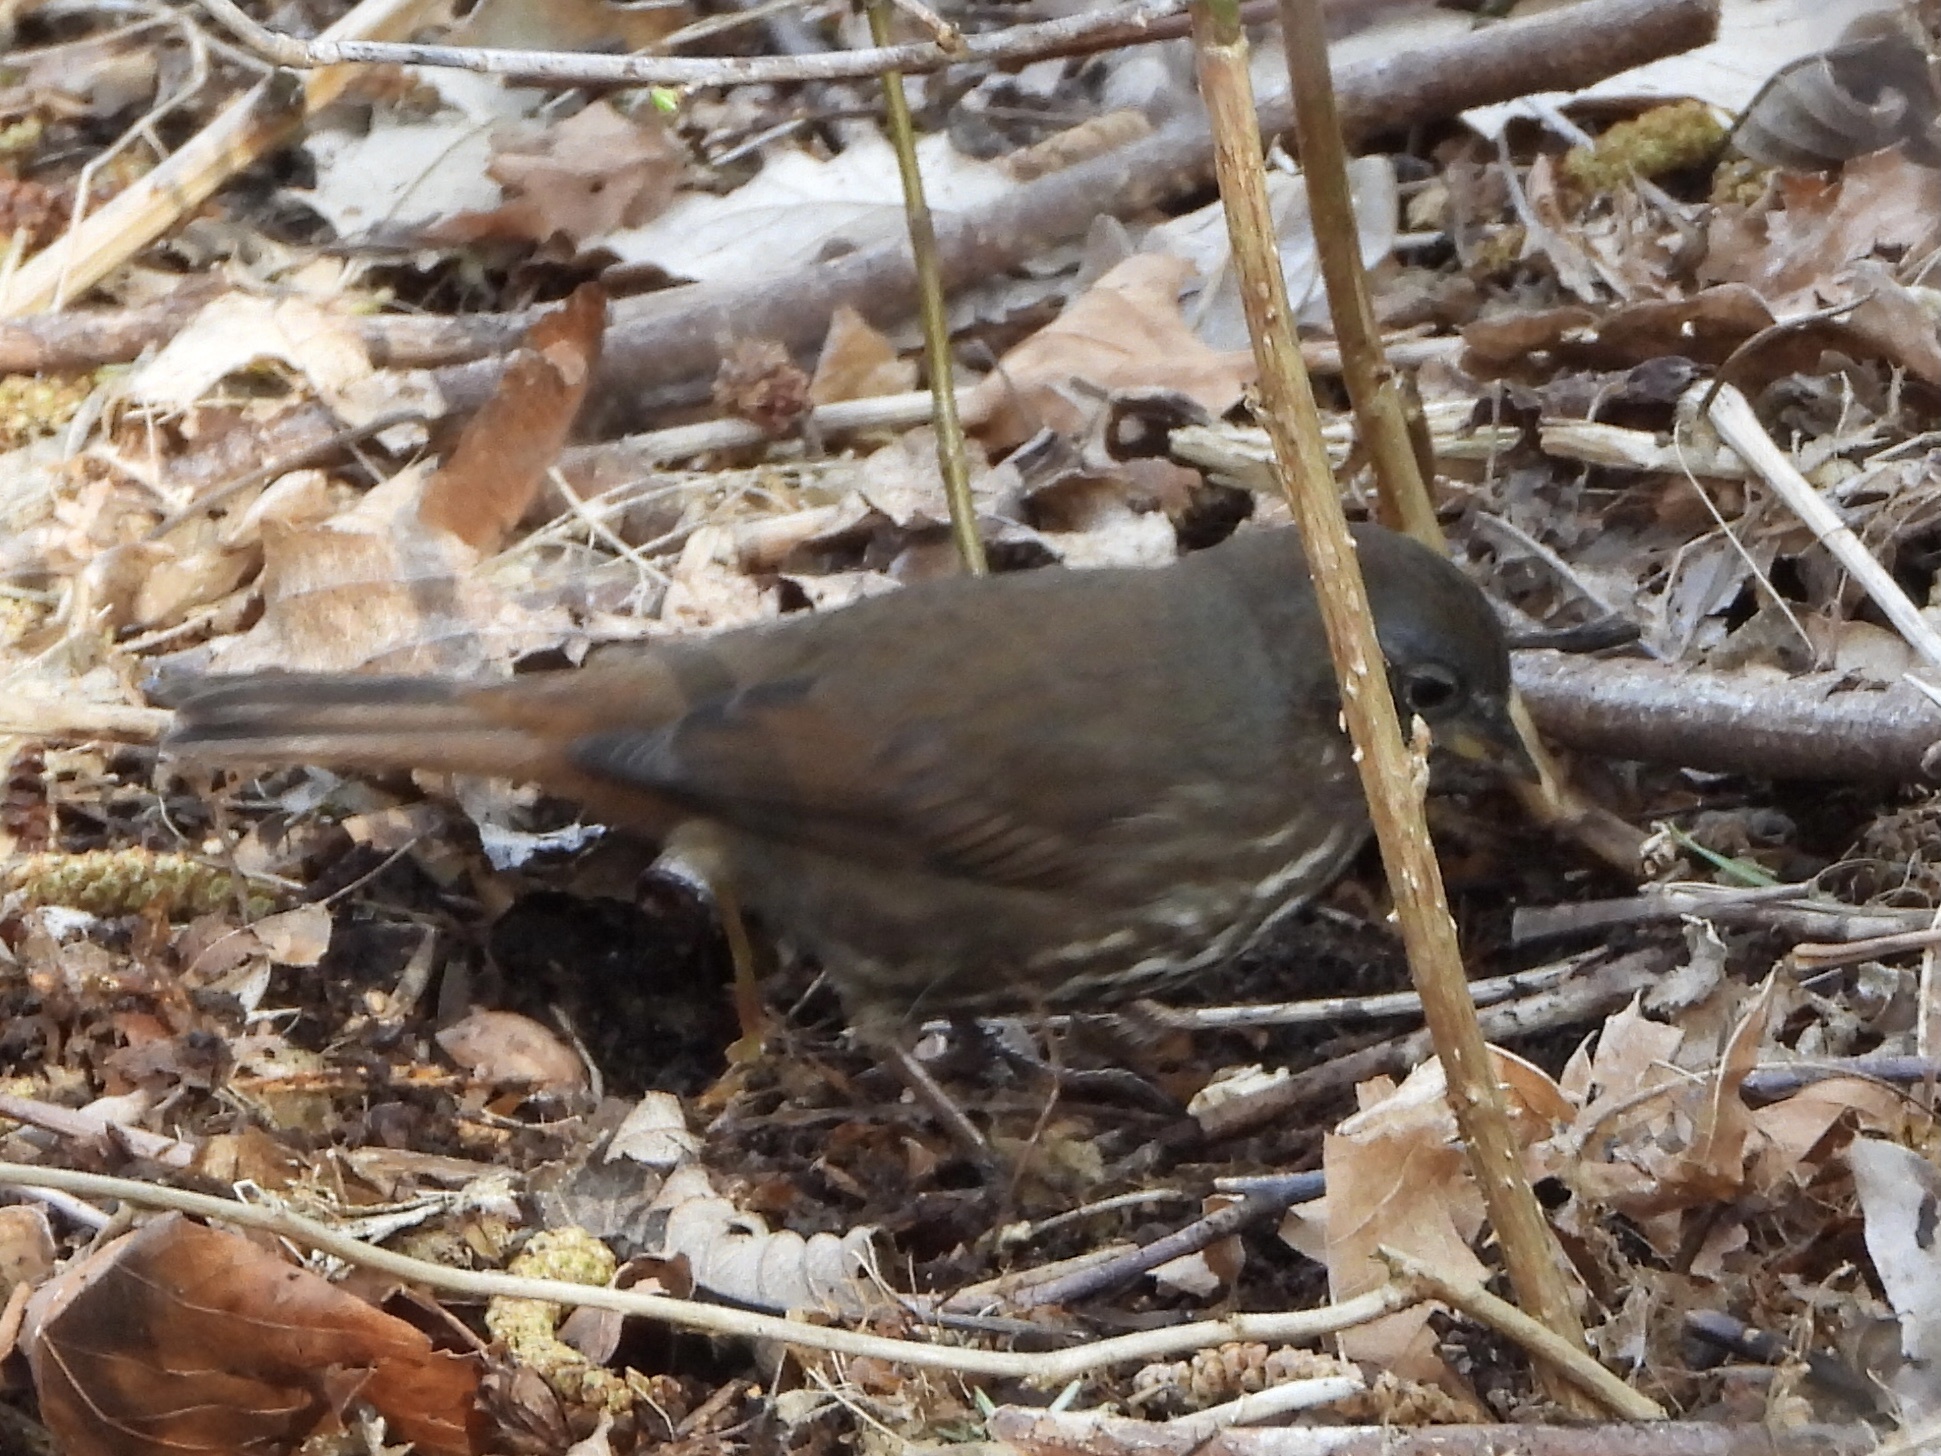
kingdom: Animalia
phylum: Chordata
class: Aves
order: Passeriformes
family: Passerellidae
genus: Passerella
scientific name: Passerella iliaca
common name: Fox sparrow
